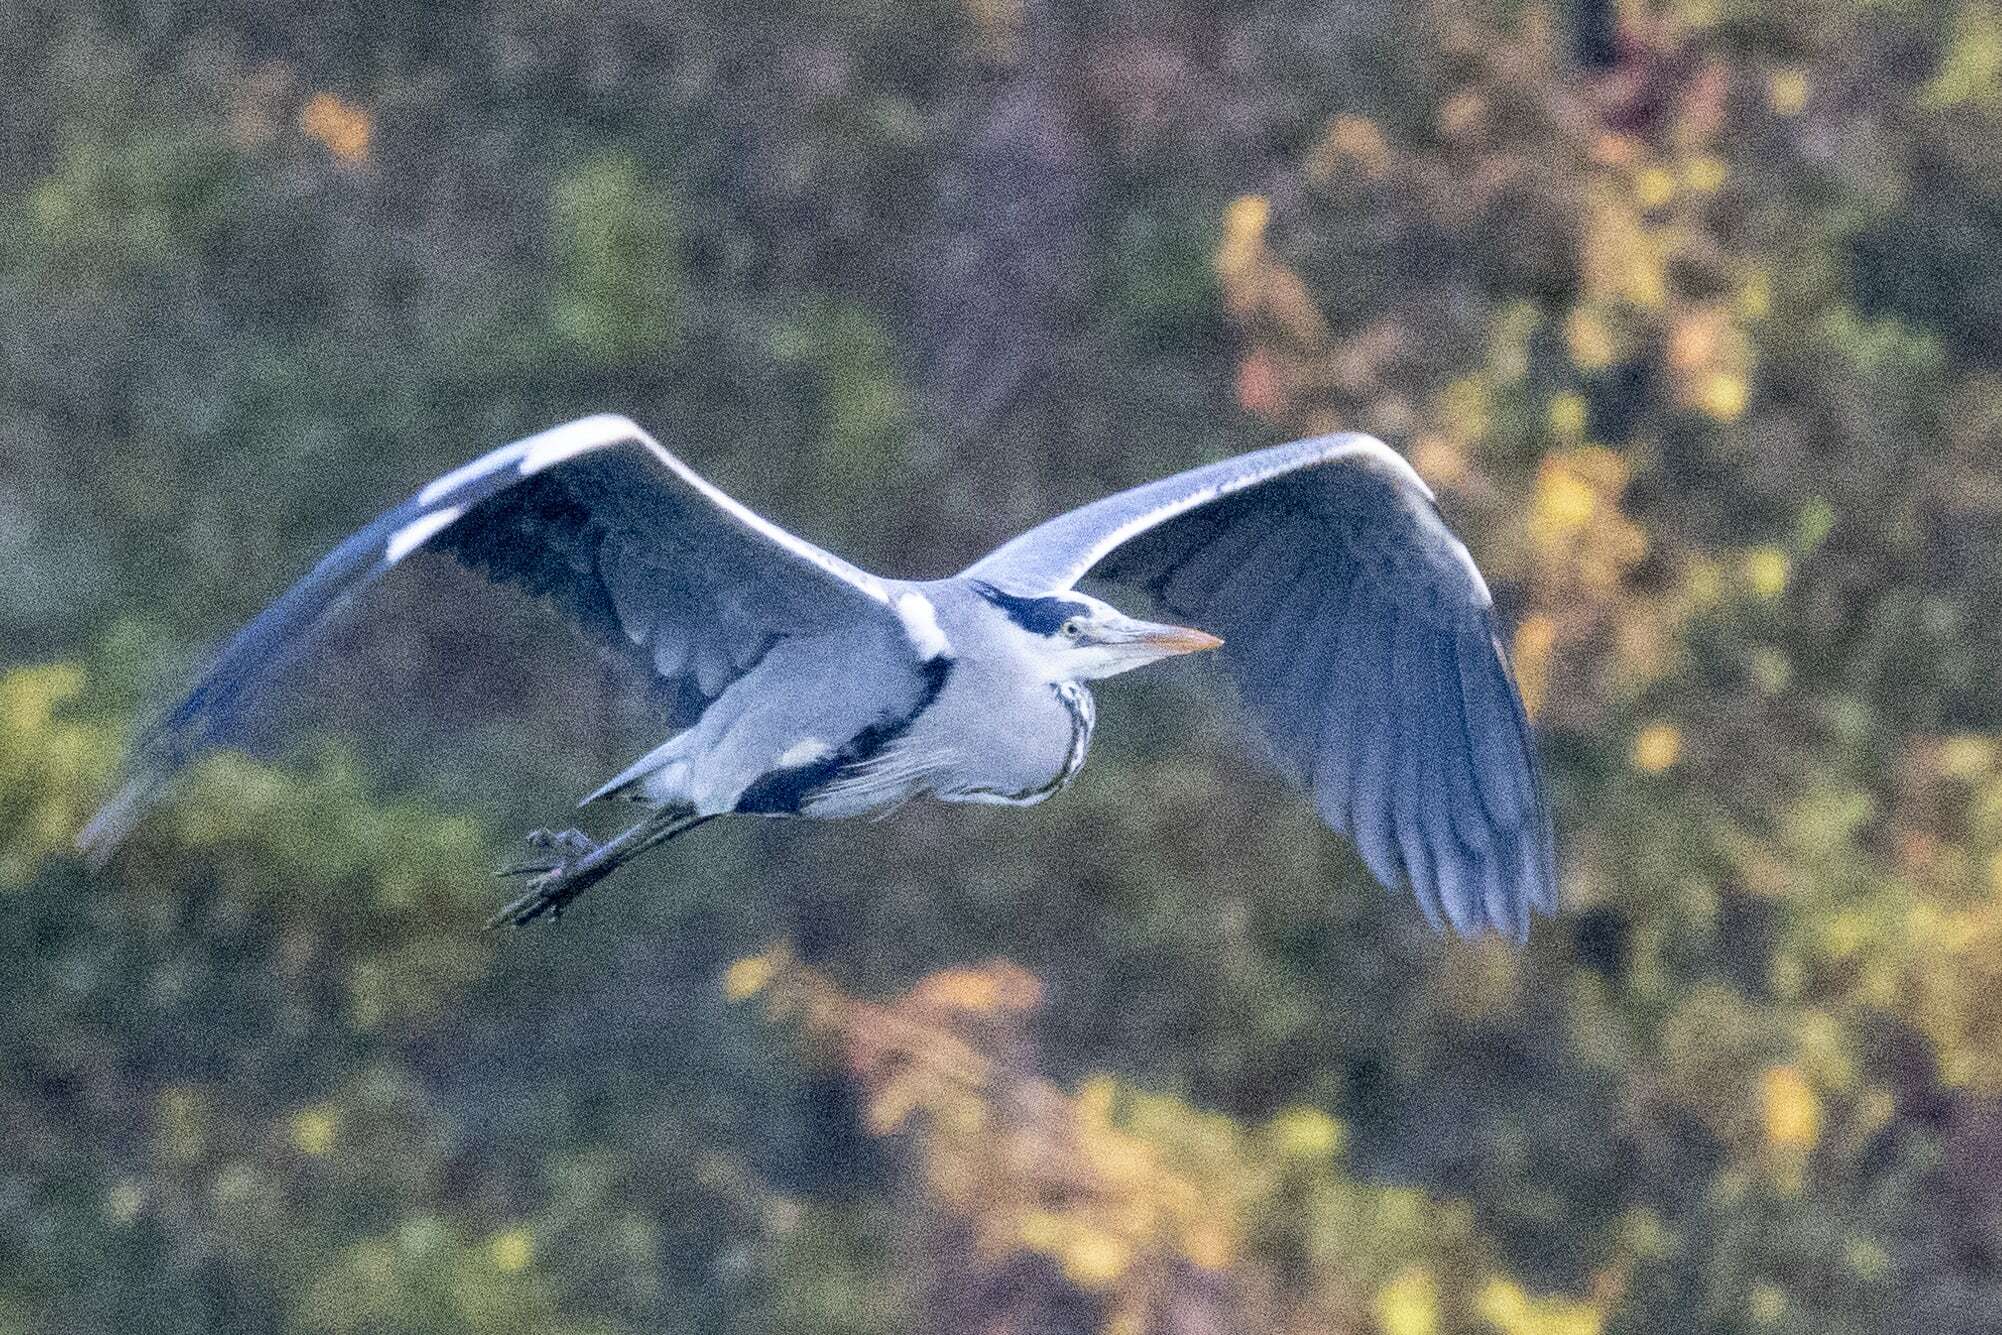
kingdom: Animalia
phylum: Chordata
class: Aves
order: Pelecaniformes
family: Ardeidae
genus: Ardea
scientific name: Ardea cinerea
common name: Grey heron
